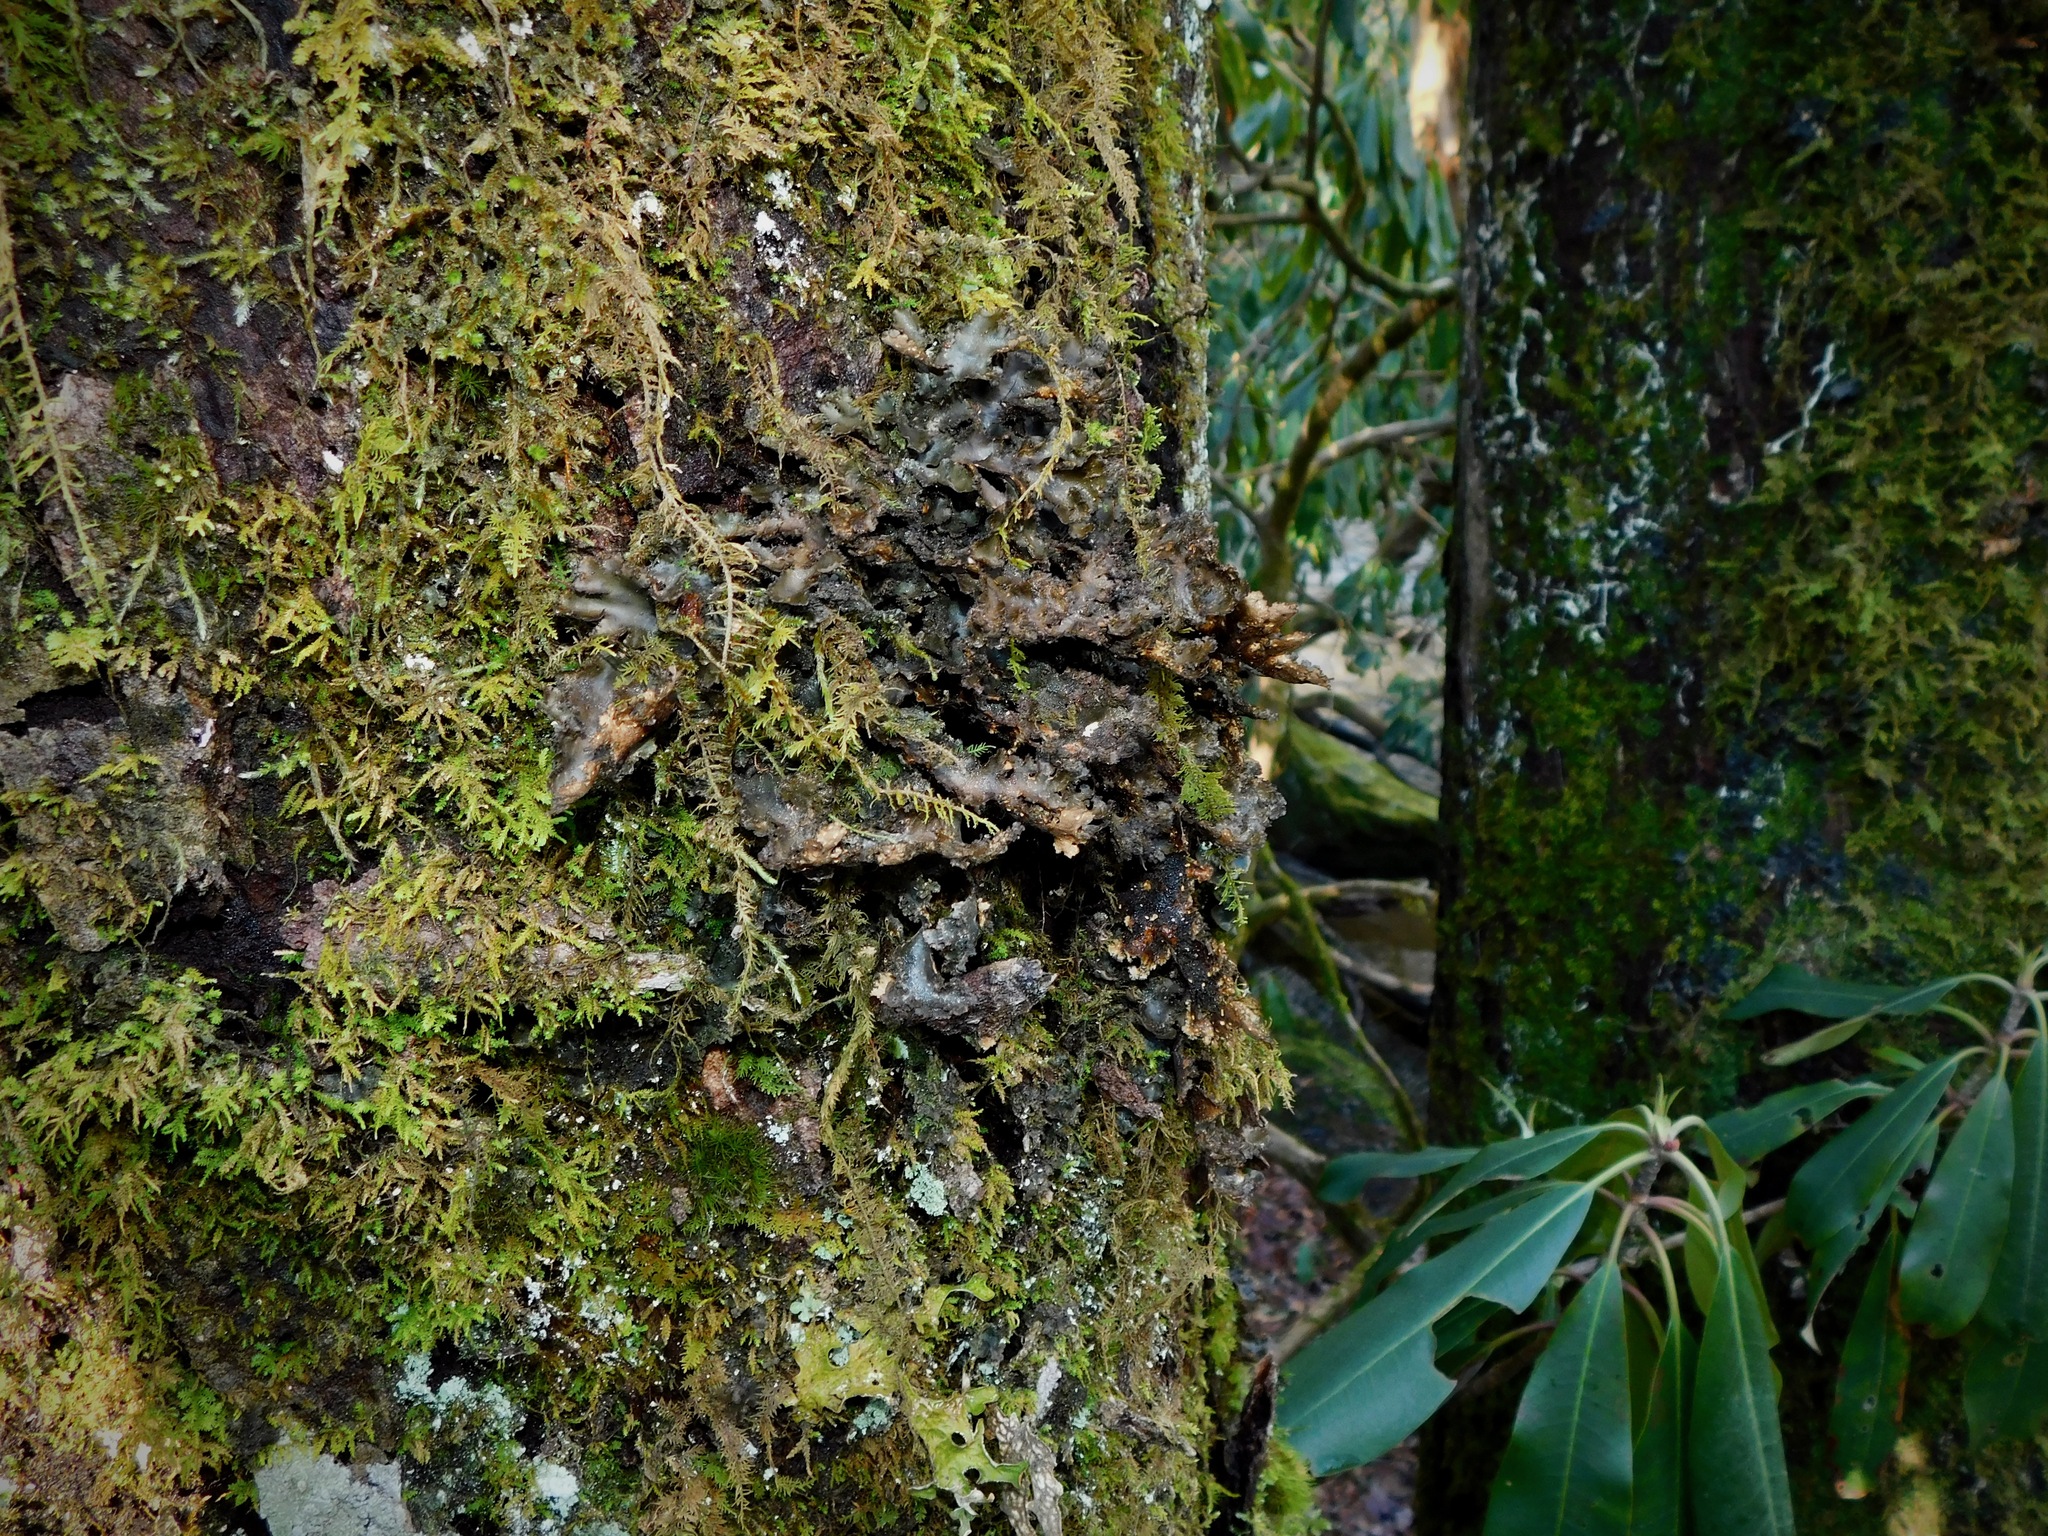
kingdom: Fungi
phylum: Ascomycota
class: Lecanoromycetes
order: Peltigerales
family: Lobariaceae
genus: Sticta
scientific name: Sticta fragilinata
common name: Tammy's pumpkin pails
